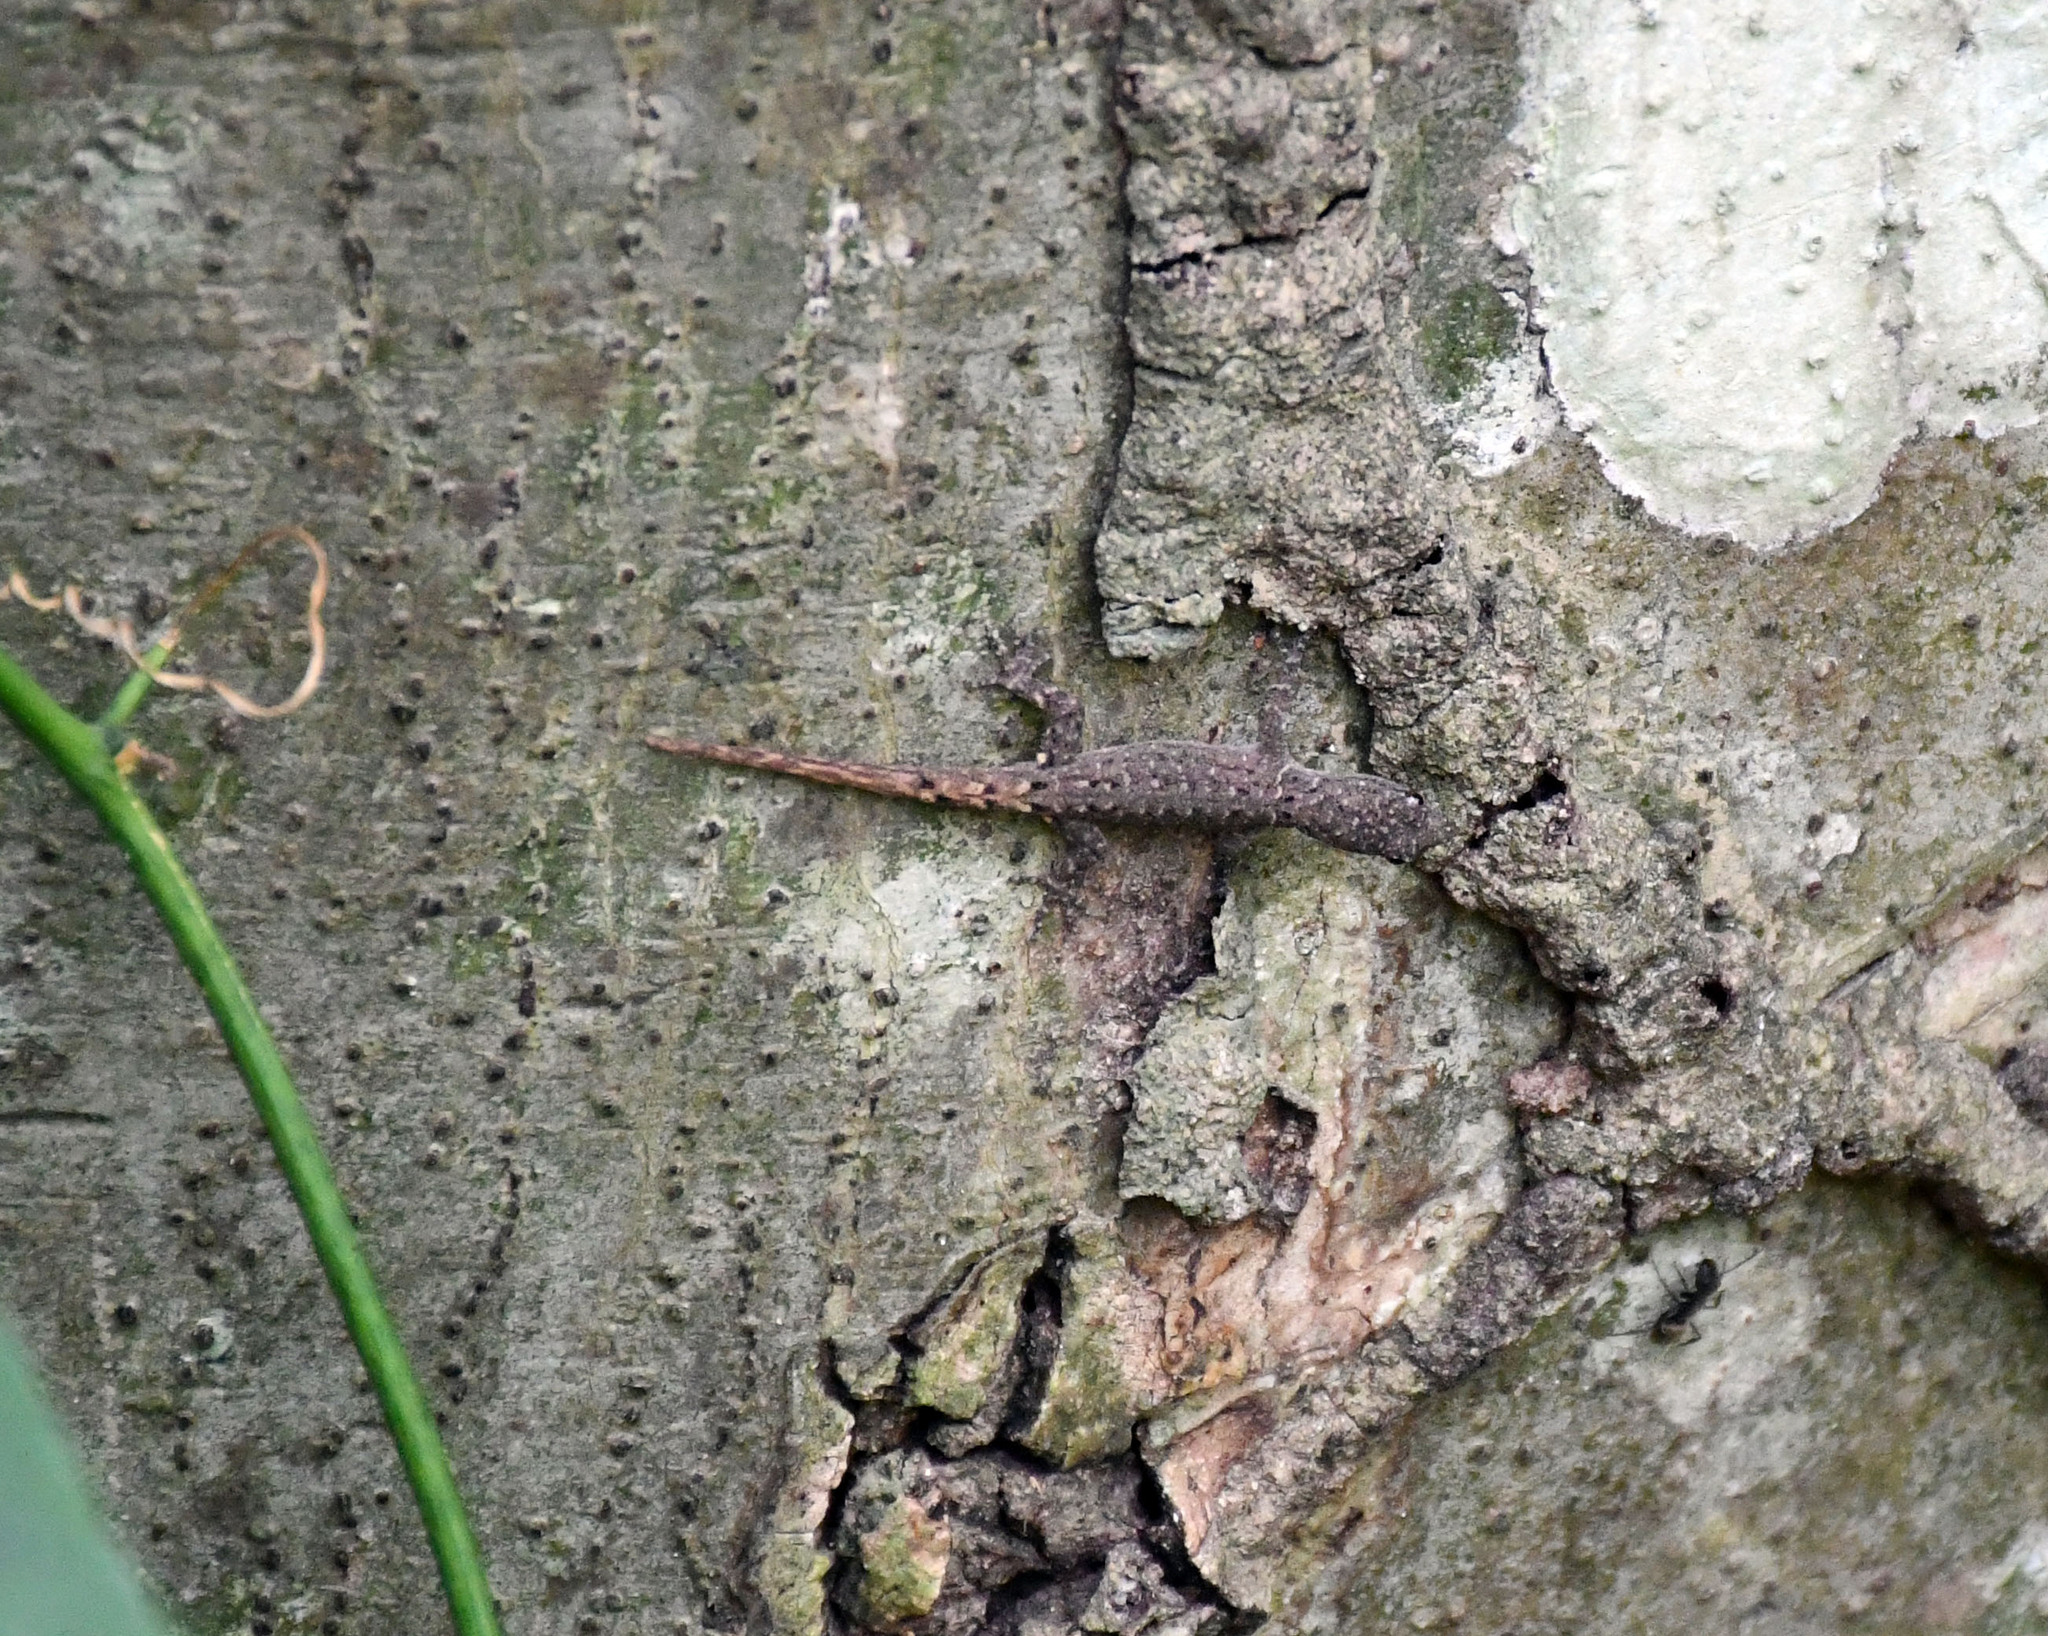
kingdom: Animalia
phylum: Chordata
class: Squamata
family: Sphaerodactylidae
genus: Gonatodes
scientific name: Gonatodes humeralis
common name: South american clawed gecko
